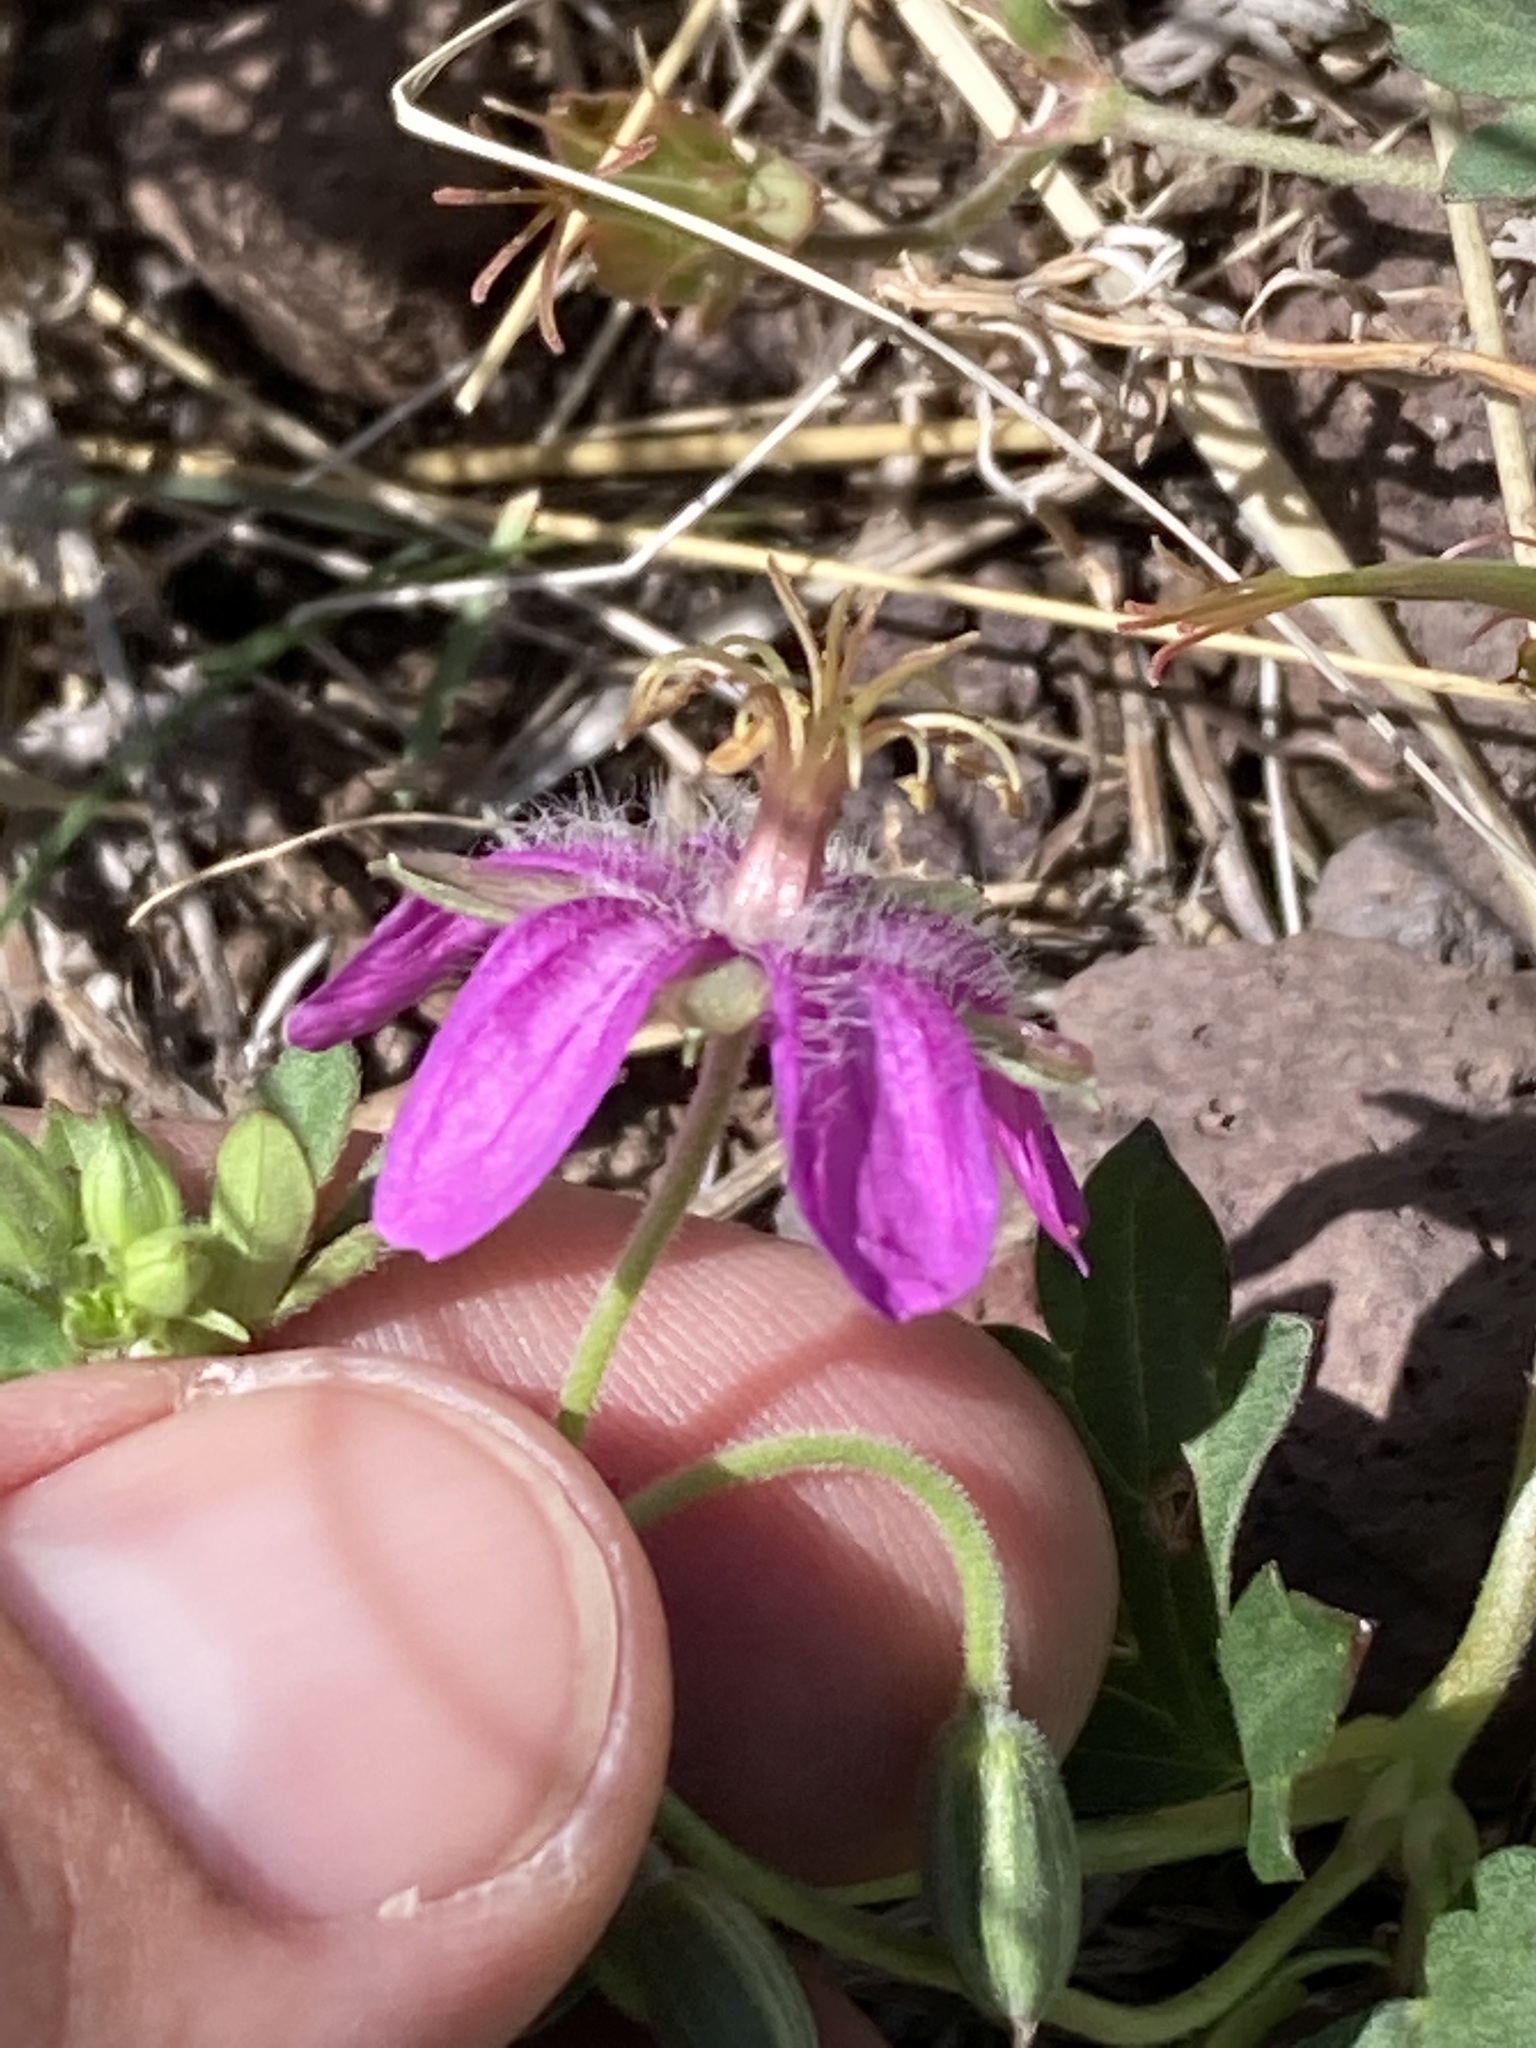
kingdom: Plantae
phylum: Tracheophyta
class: Magnoliopsida
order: Geraniales
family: Geraniaceae
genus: Geranium
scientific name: Geranium caespitosum
